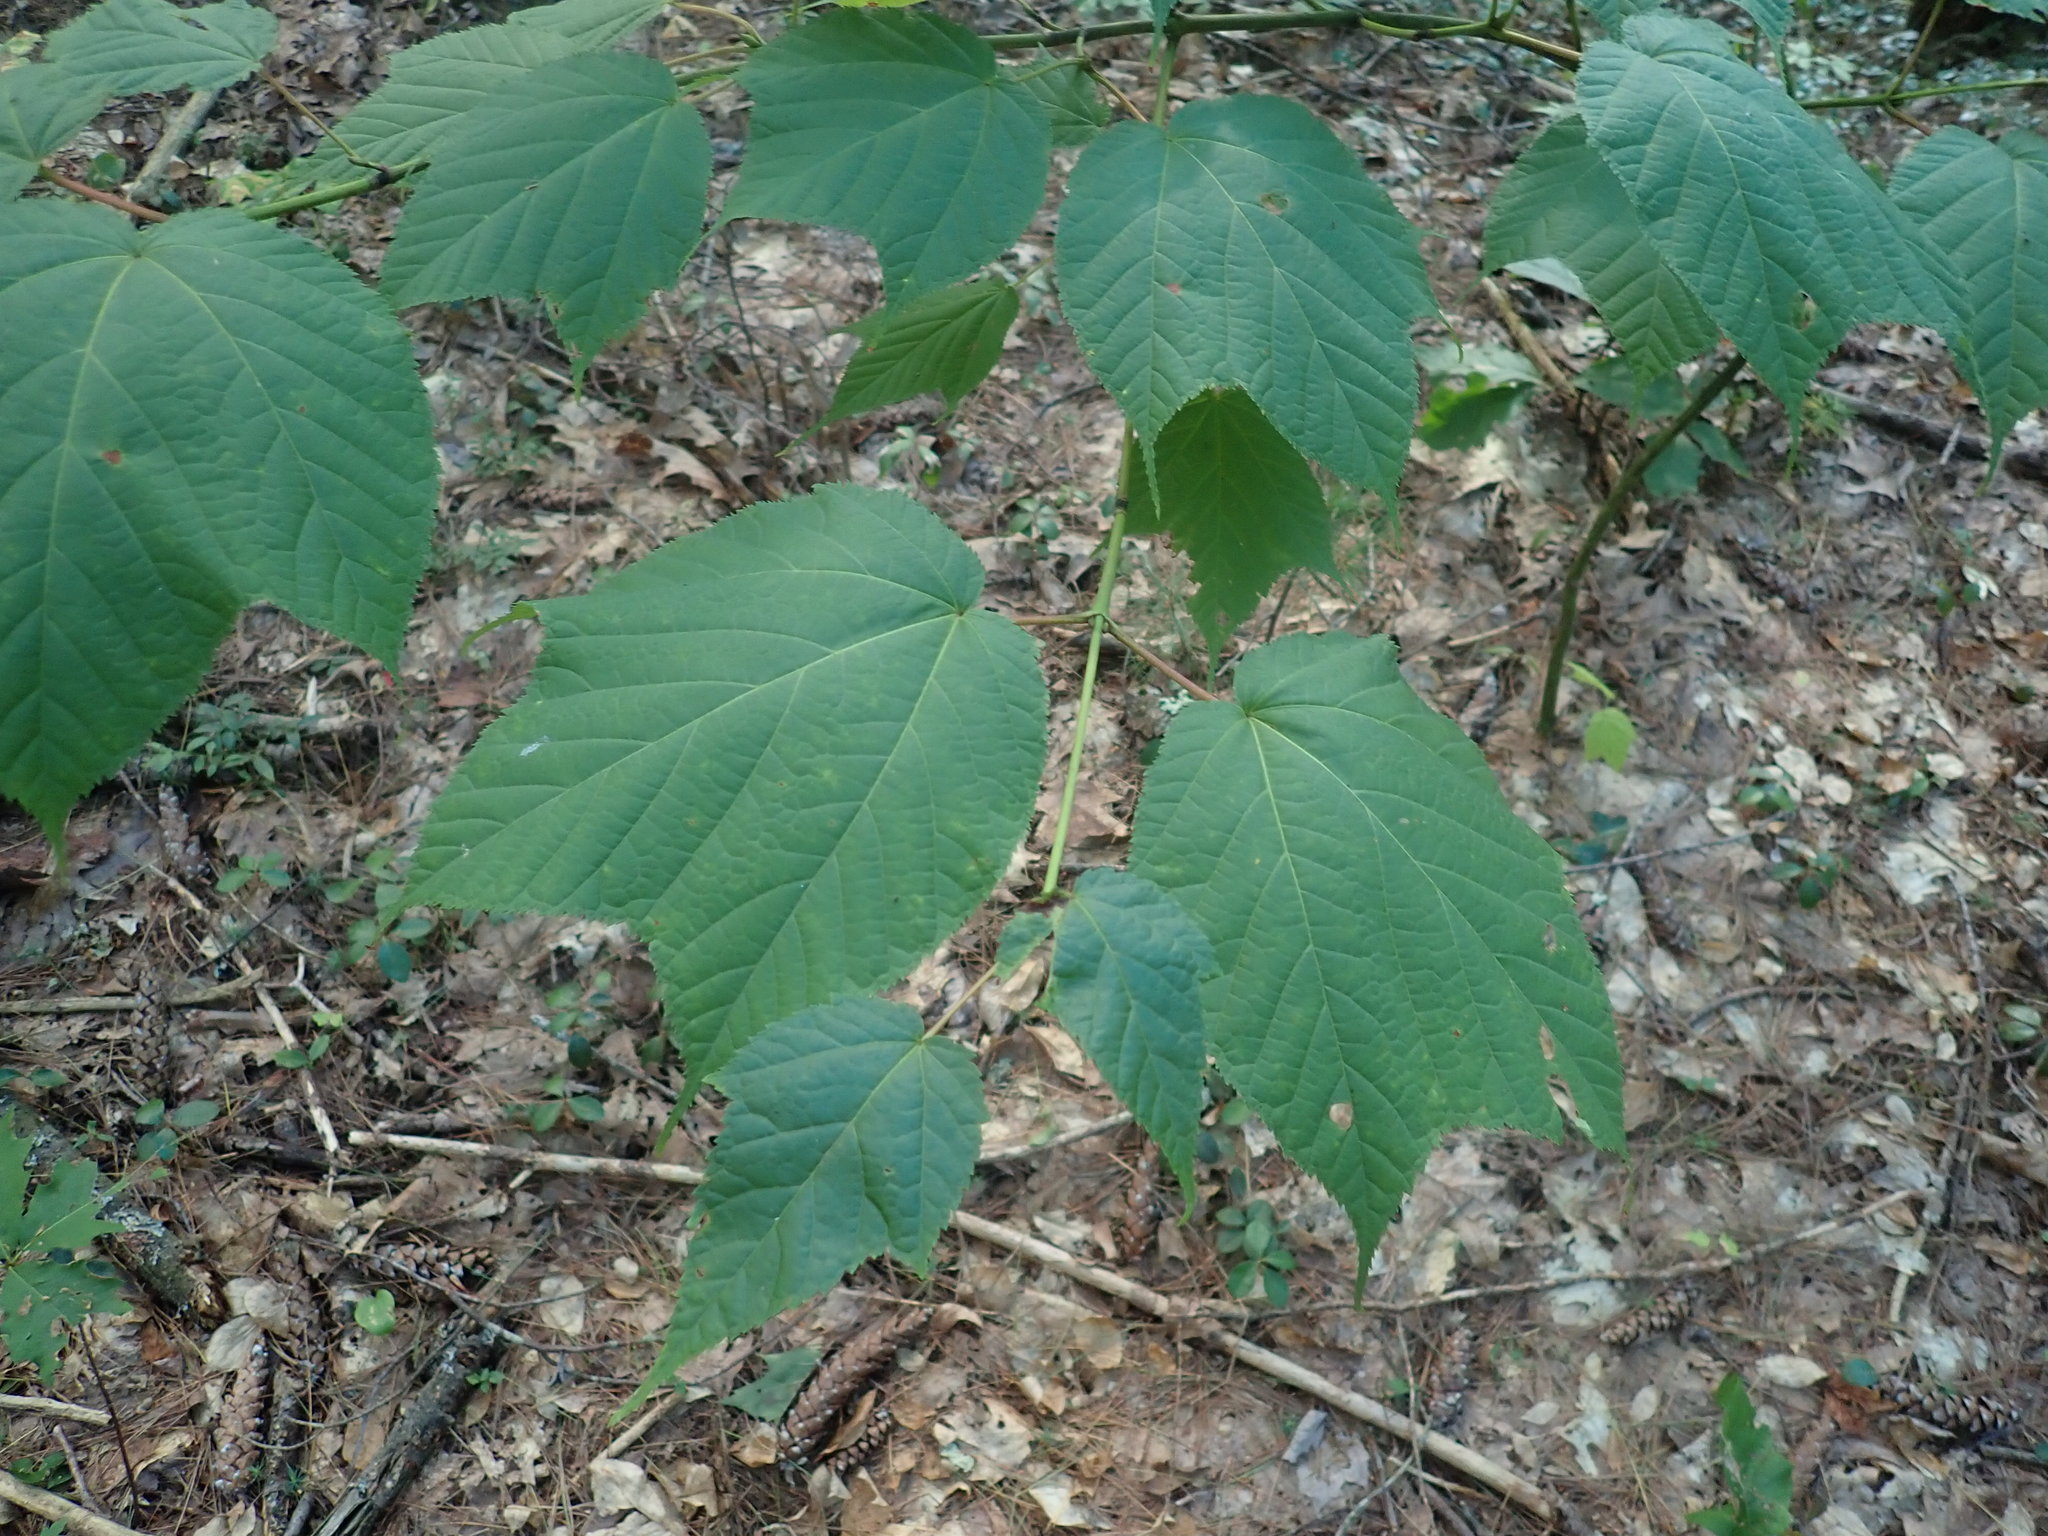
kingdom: Plantae
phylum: Tracheophyta
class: Magnoliopsida
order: Sapindales
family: Sapindaceae
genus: Acer
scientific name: Acer pensylvanicum
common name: Moosewood
